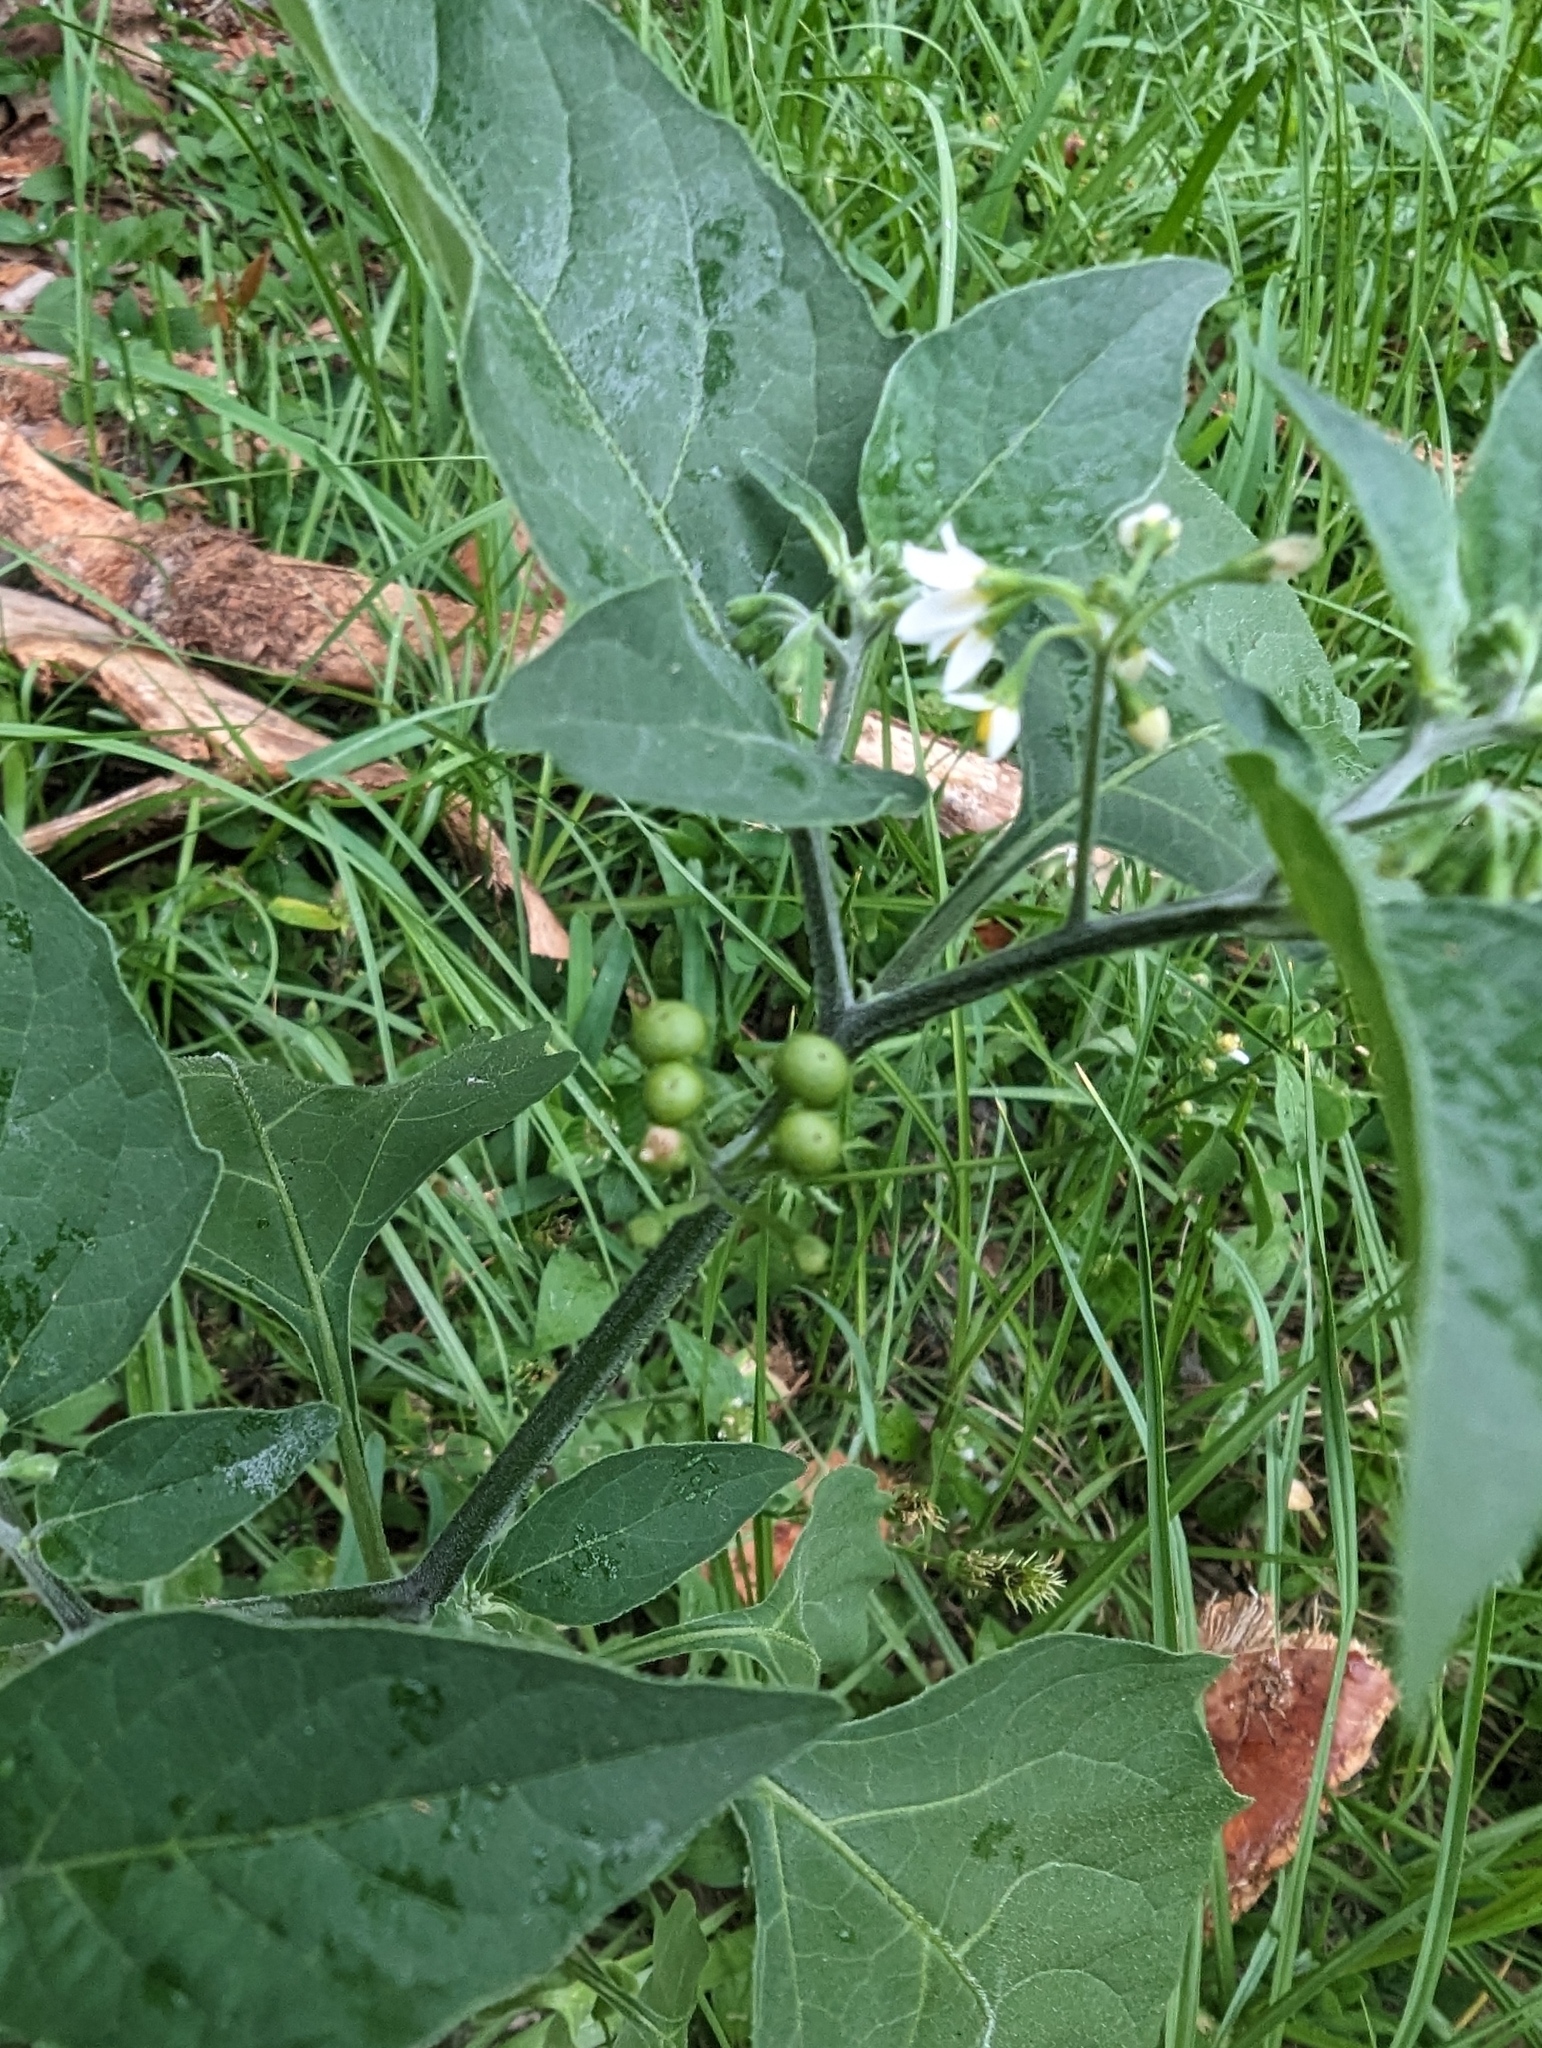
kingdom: Plantae
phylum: Tracheophyta
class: Magnoliopsida
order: Solanales
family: Solanaceae
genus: Solanum
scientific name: Solanum americanum
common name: American black nightshade
